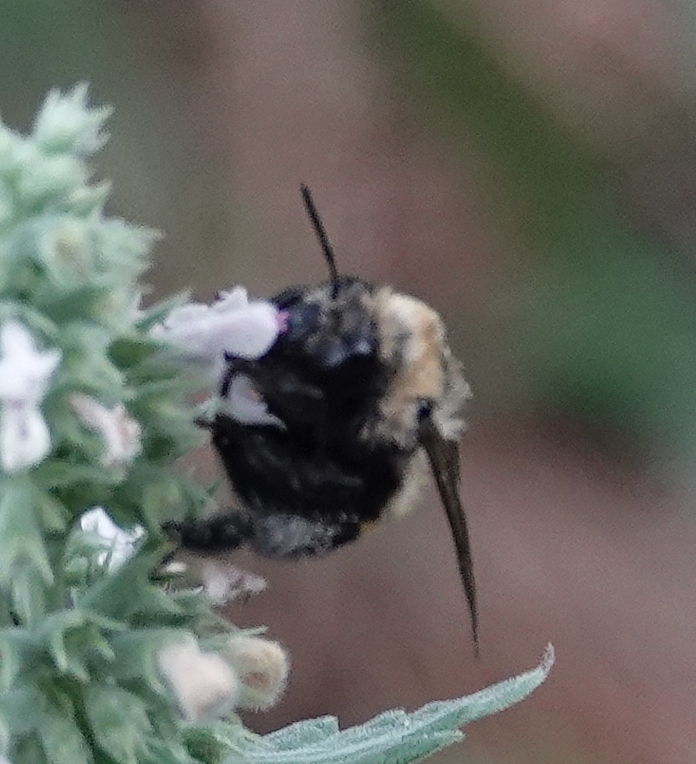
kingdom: Animalia
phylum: Arthropoda
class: Insecta
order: Hymenoptera
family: Apidae
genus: Anthophora
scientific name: Anthophora bomboides
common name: Bumble-bee-mimic digger bee
